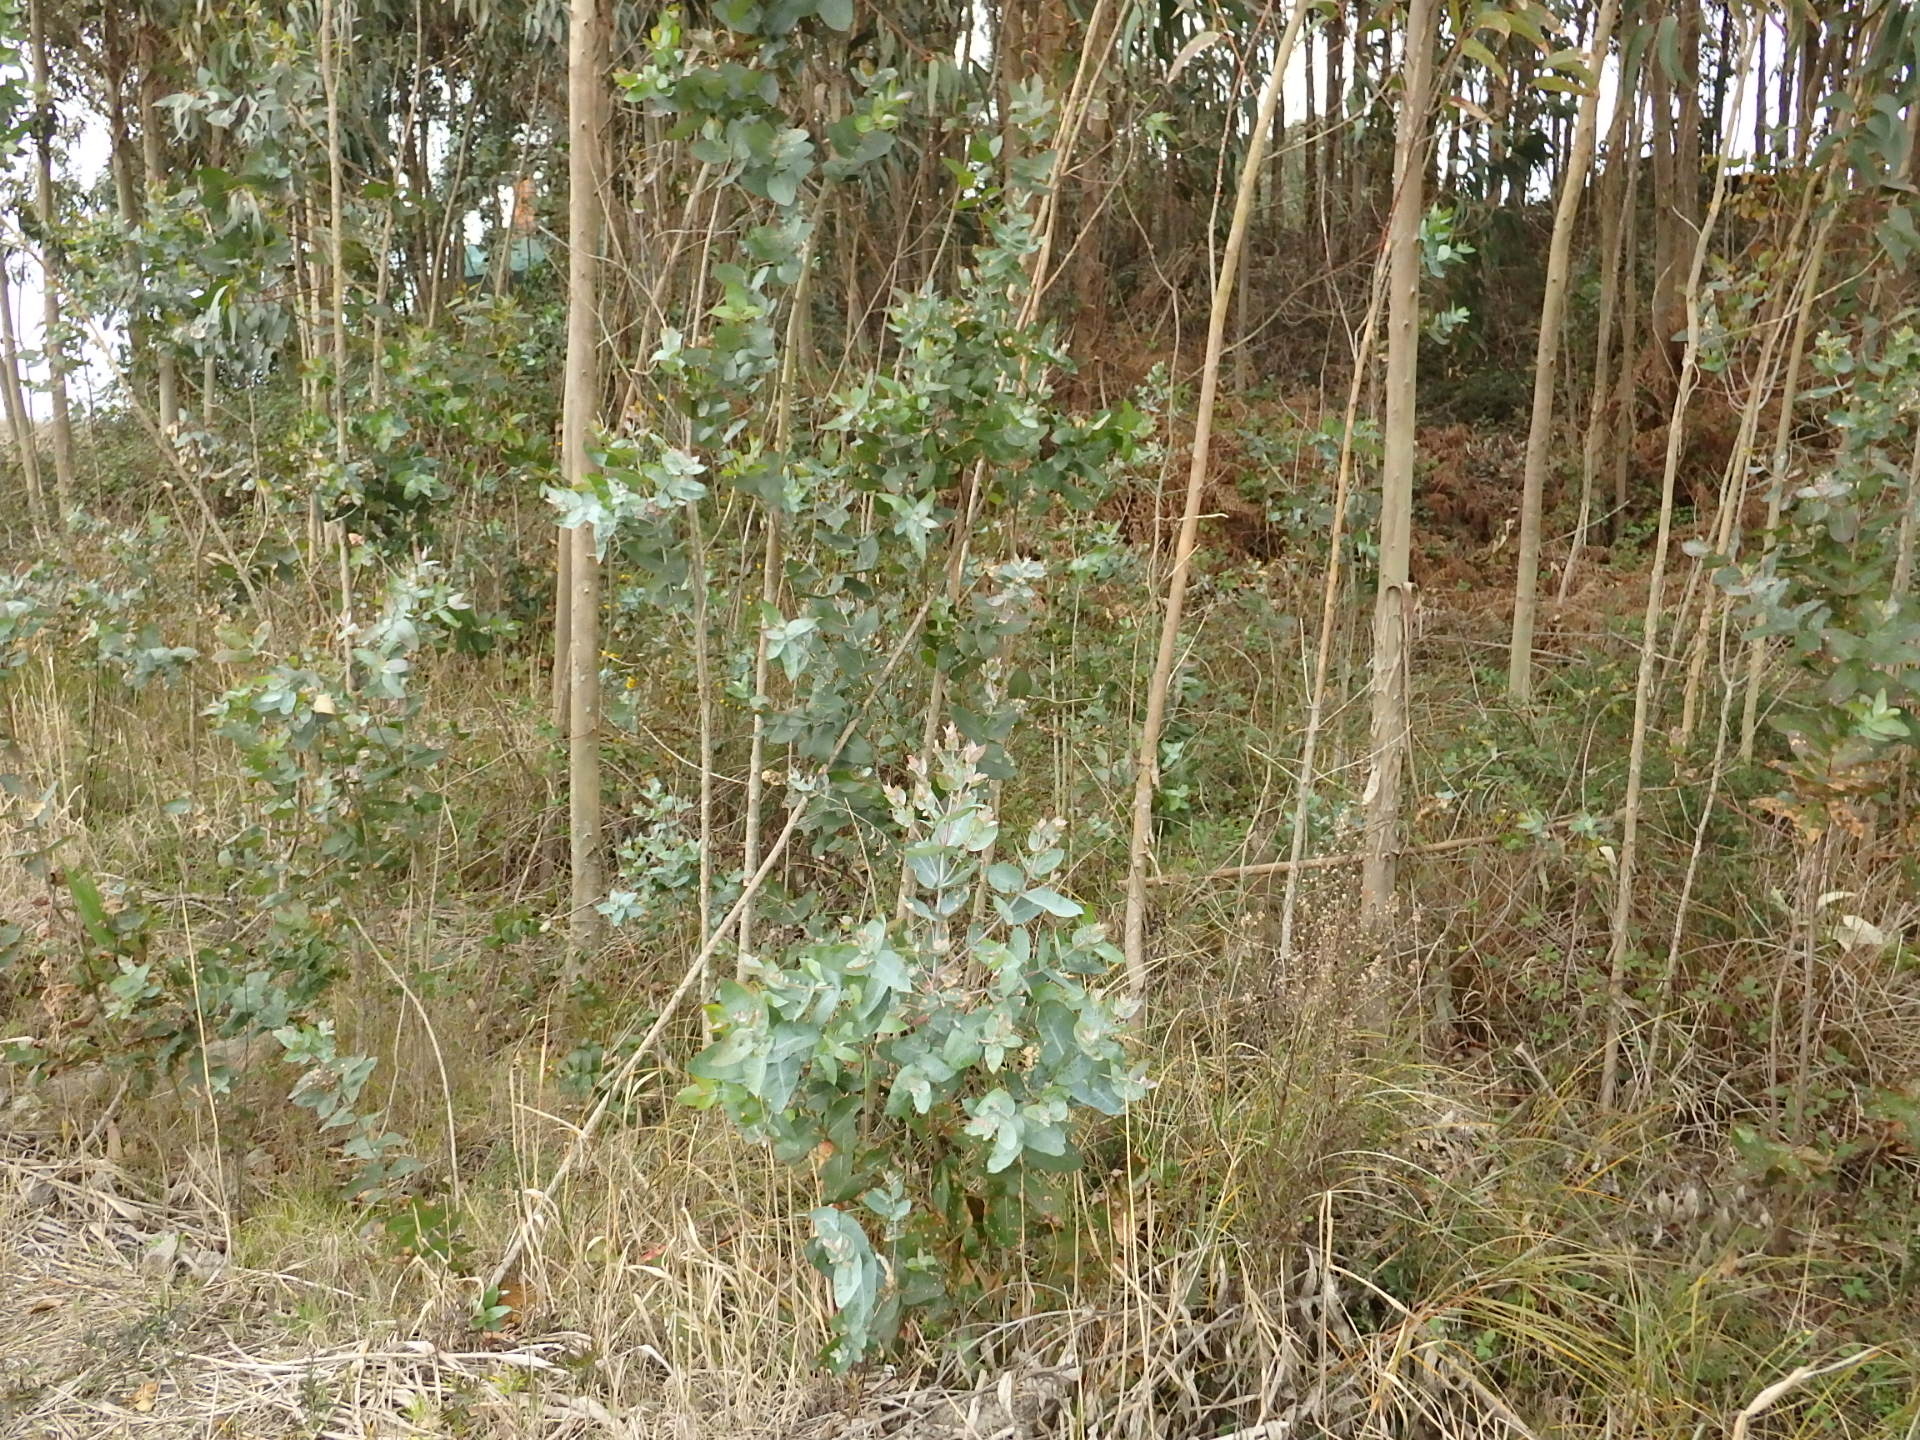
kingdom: Plantae
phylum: Tracheophyta
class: Magnoliopsida
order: Myrtales
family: Myrtaceae
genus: Eucalyptus
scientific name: Eucalyptus globulus
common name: Southern blue-gum
